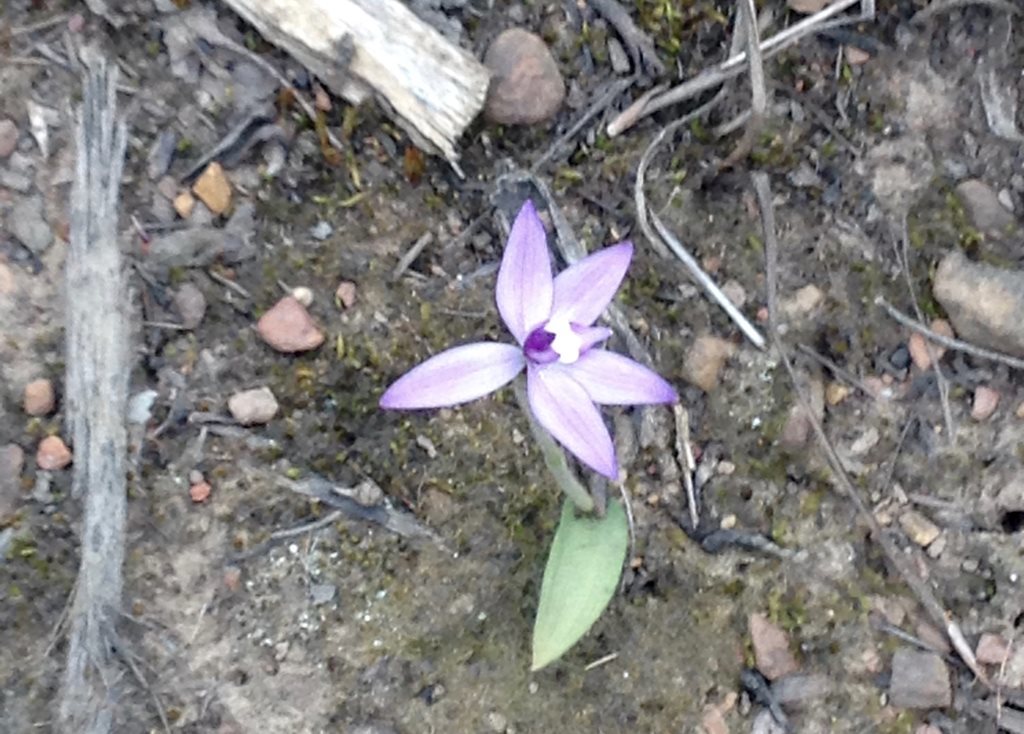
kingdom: Plantae
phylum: Tracheophyta
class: Liliopsida
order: Asparagales
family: Orchidaceae
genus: Caladenia
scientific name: Caladenia major
